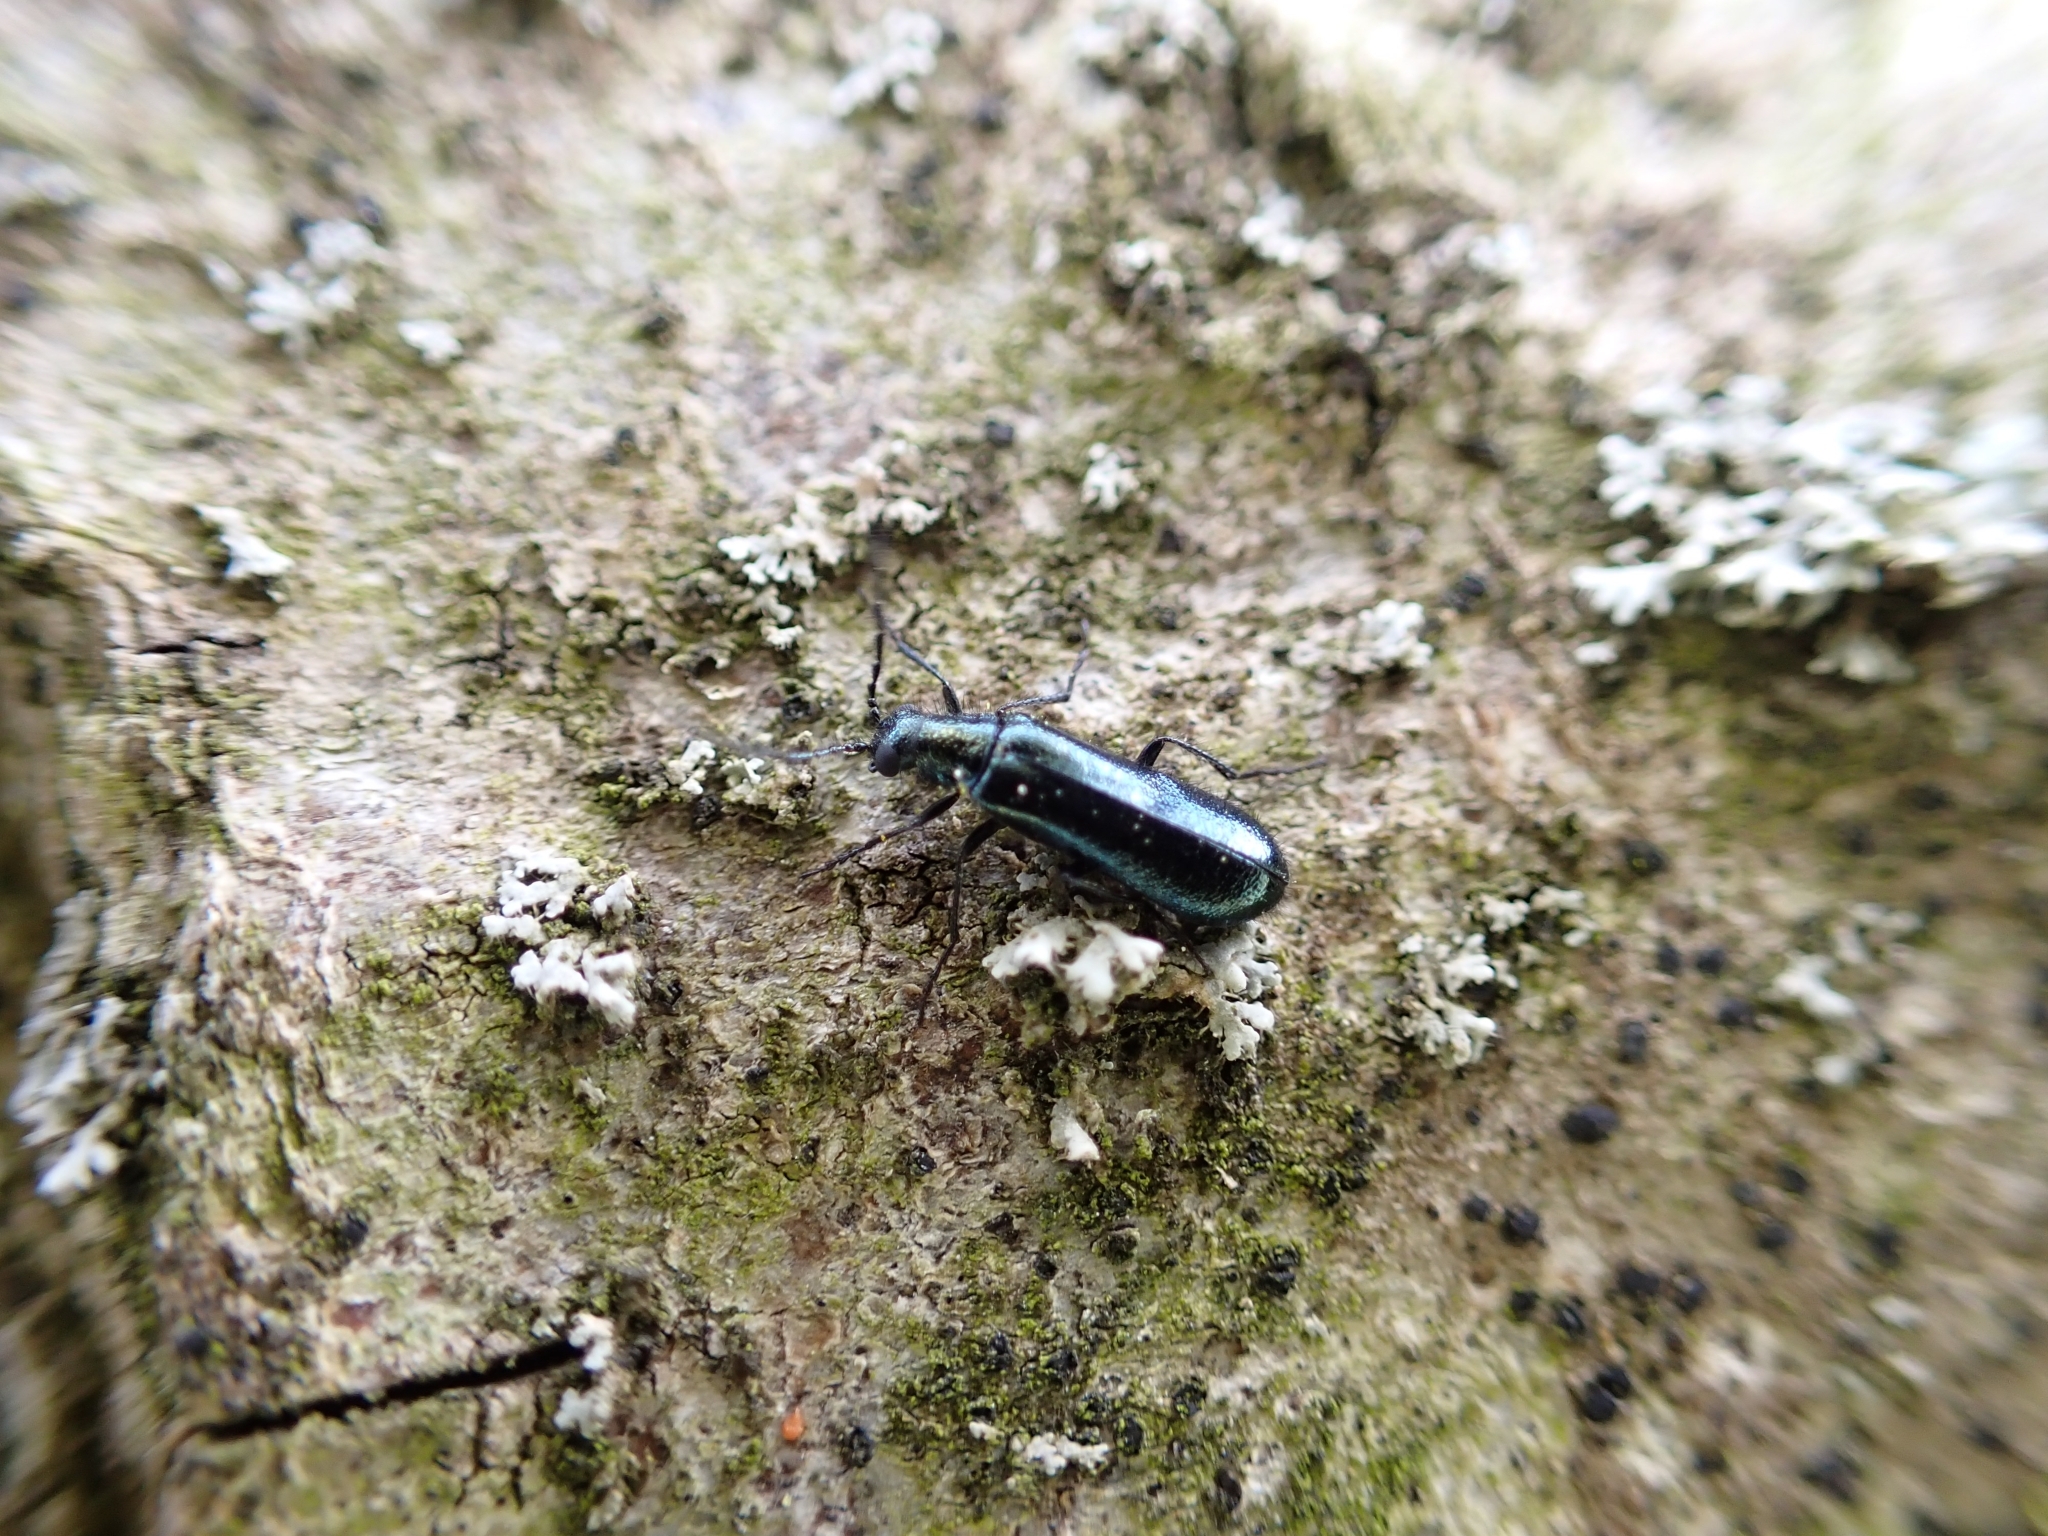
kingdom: Animalia
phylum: Arthropoda
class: Insecta
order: Coleoptera
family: Melyridae
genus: Dasytes
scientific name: Dasytes caeruleus
